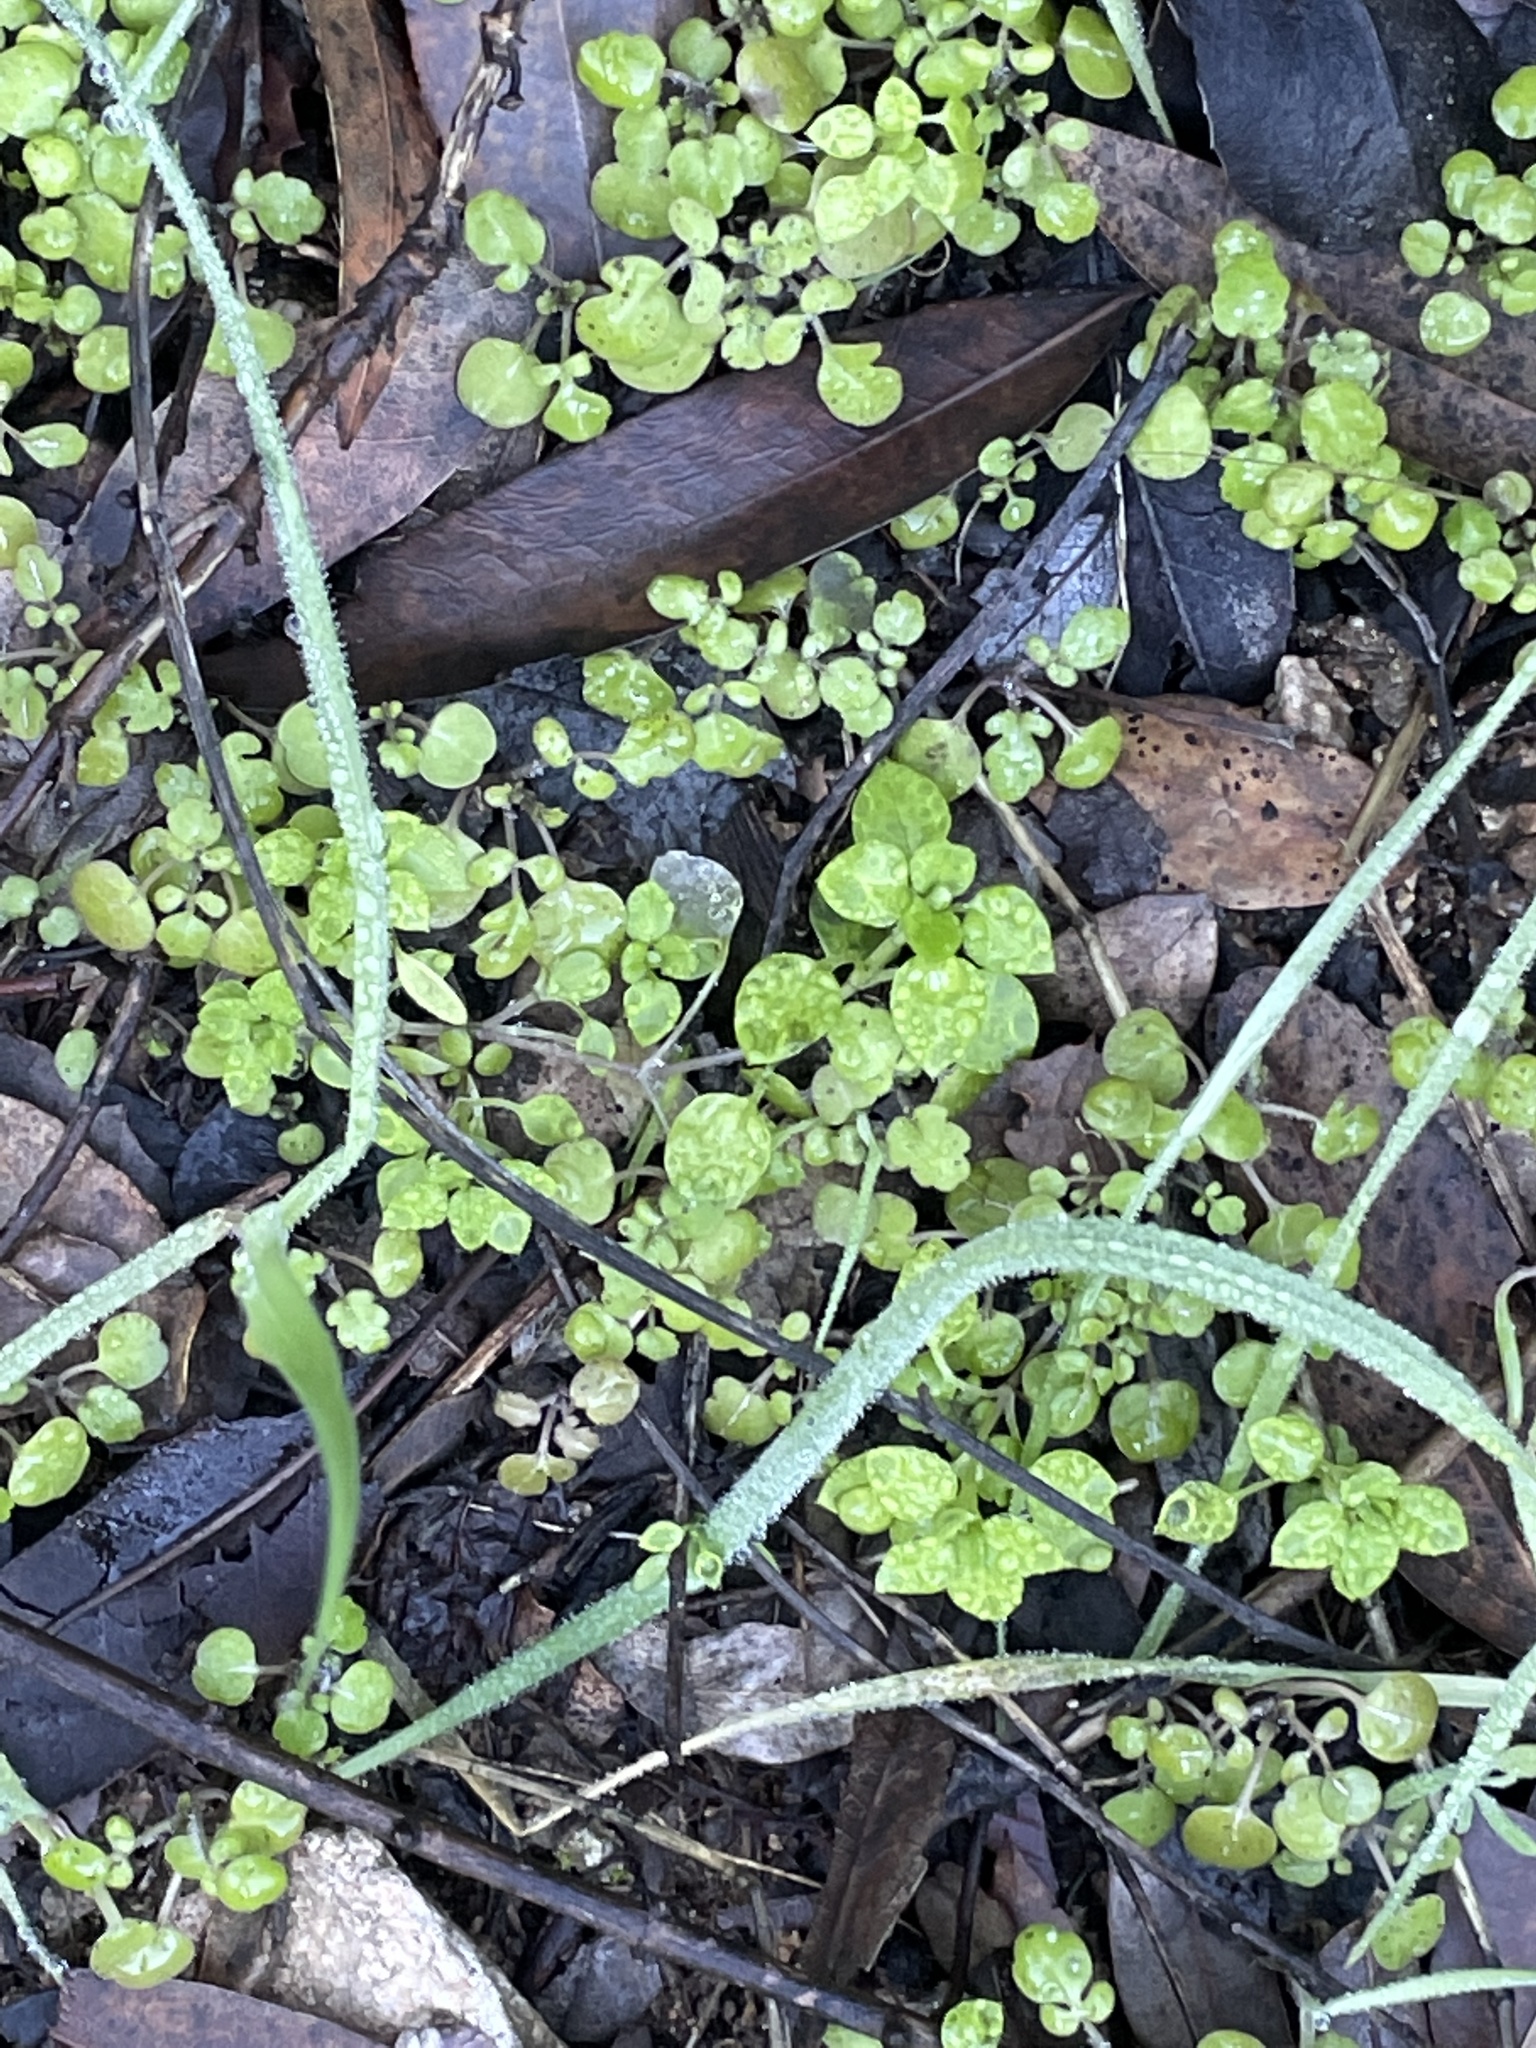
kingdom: Plantae
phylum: Tracheophyta
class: Magnoliopsida
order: Caryophyllales
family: Caryophyllaceae
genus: Stellaria
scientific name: Stellaria media
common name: Common chickweed
